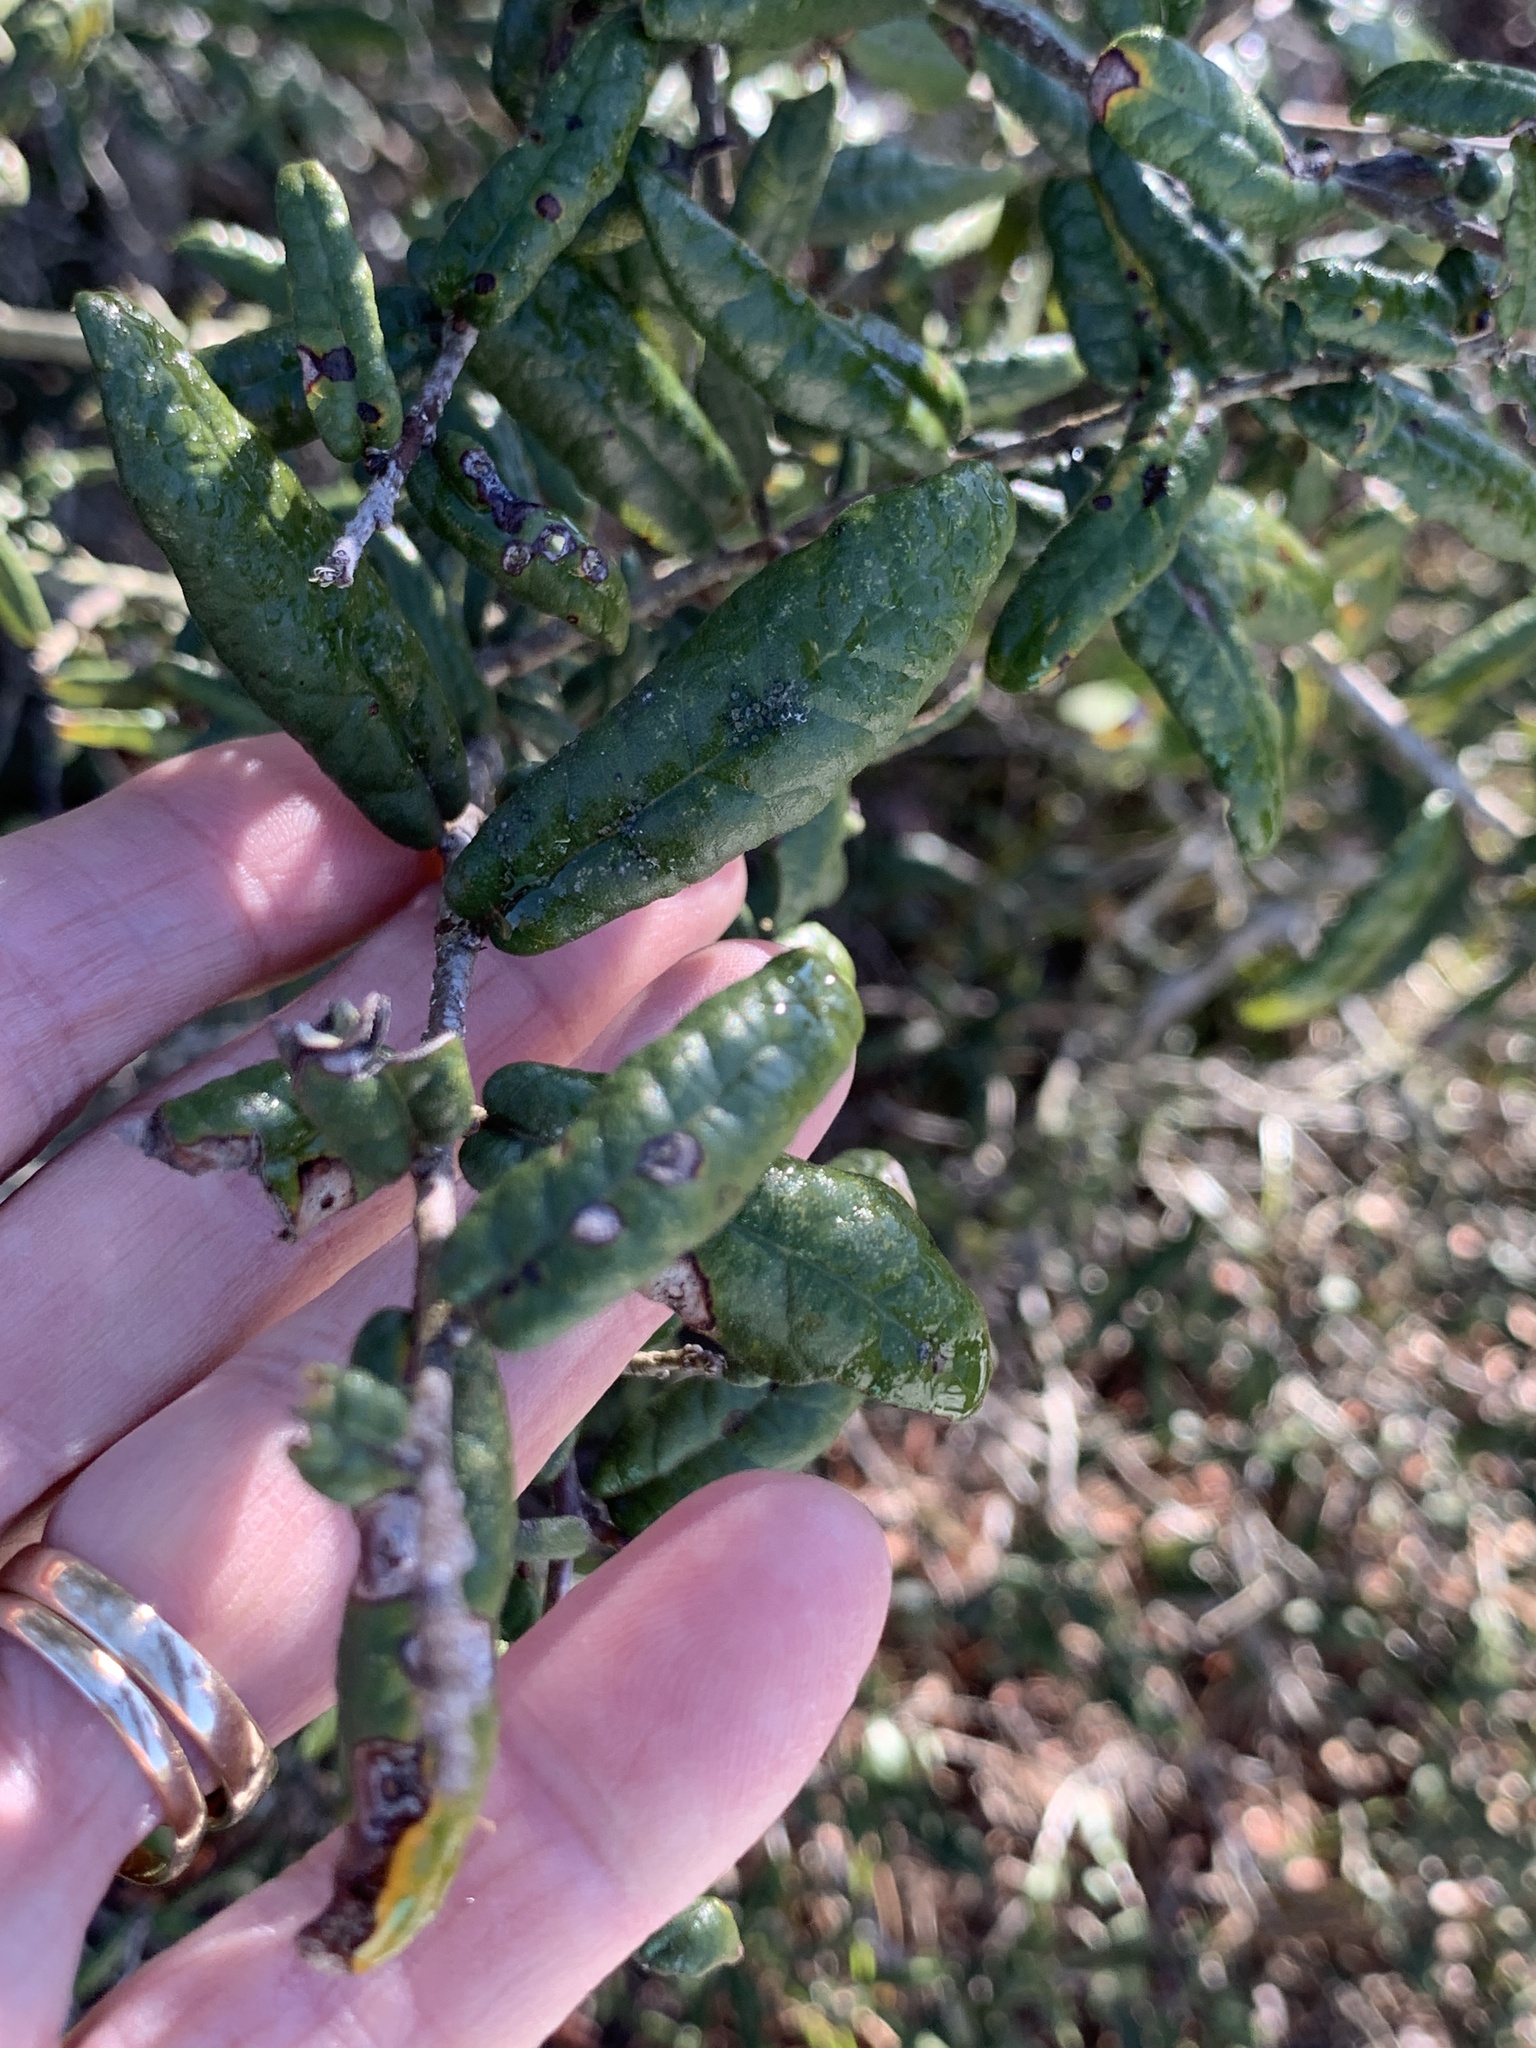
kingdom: Plantae
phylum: Tracheophyta
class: Magnoliopsida
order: Fagales
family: Fagaceae
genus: Quercus
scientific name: Quercus geminata
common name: Sand live oak
